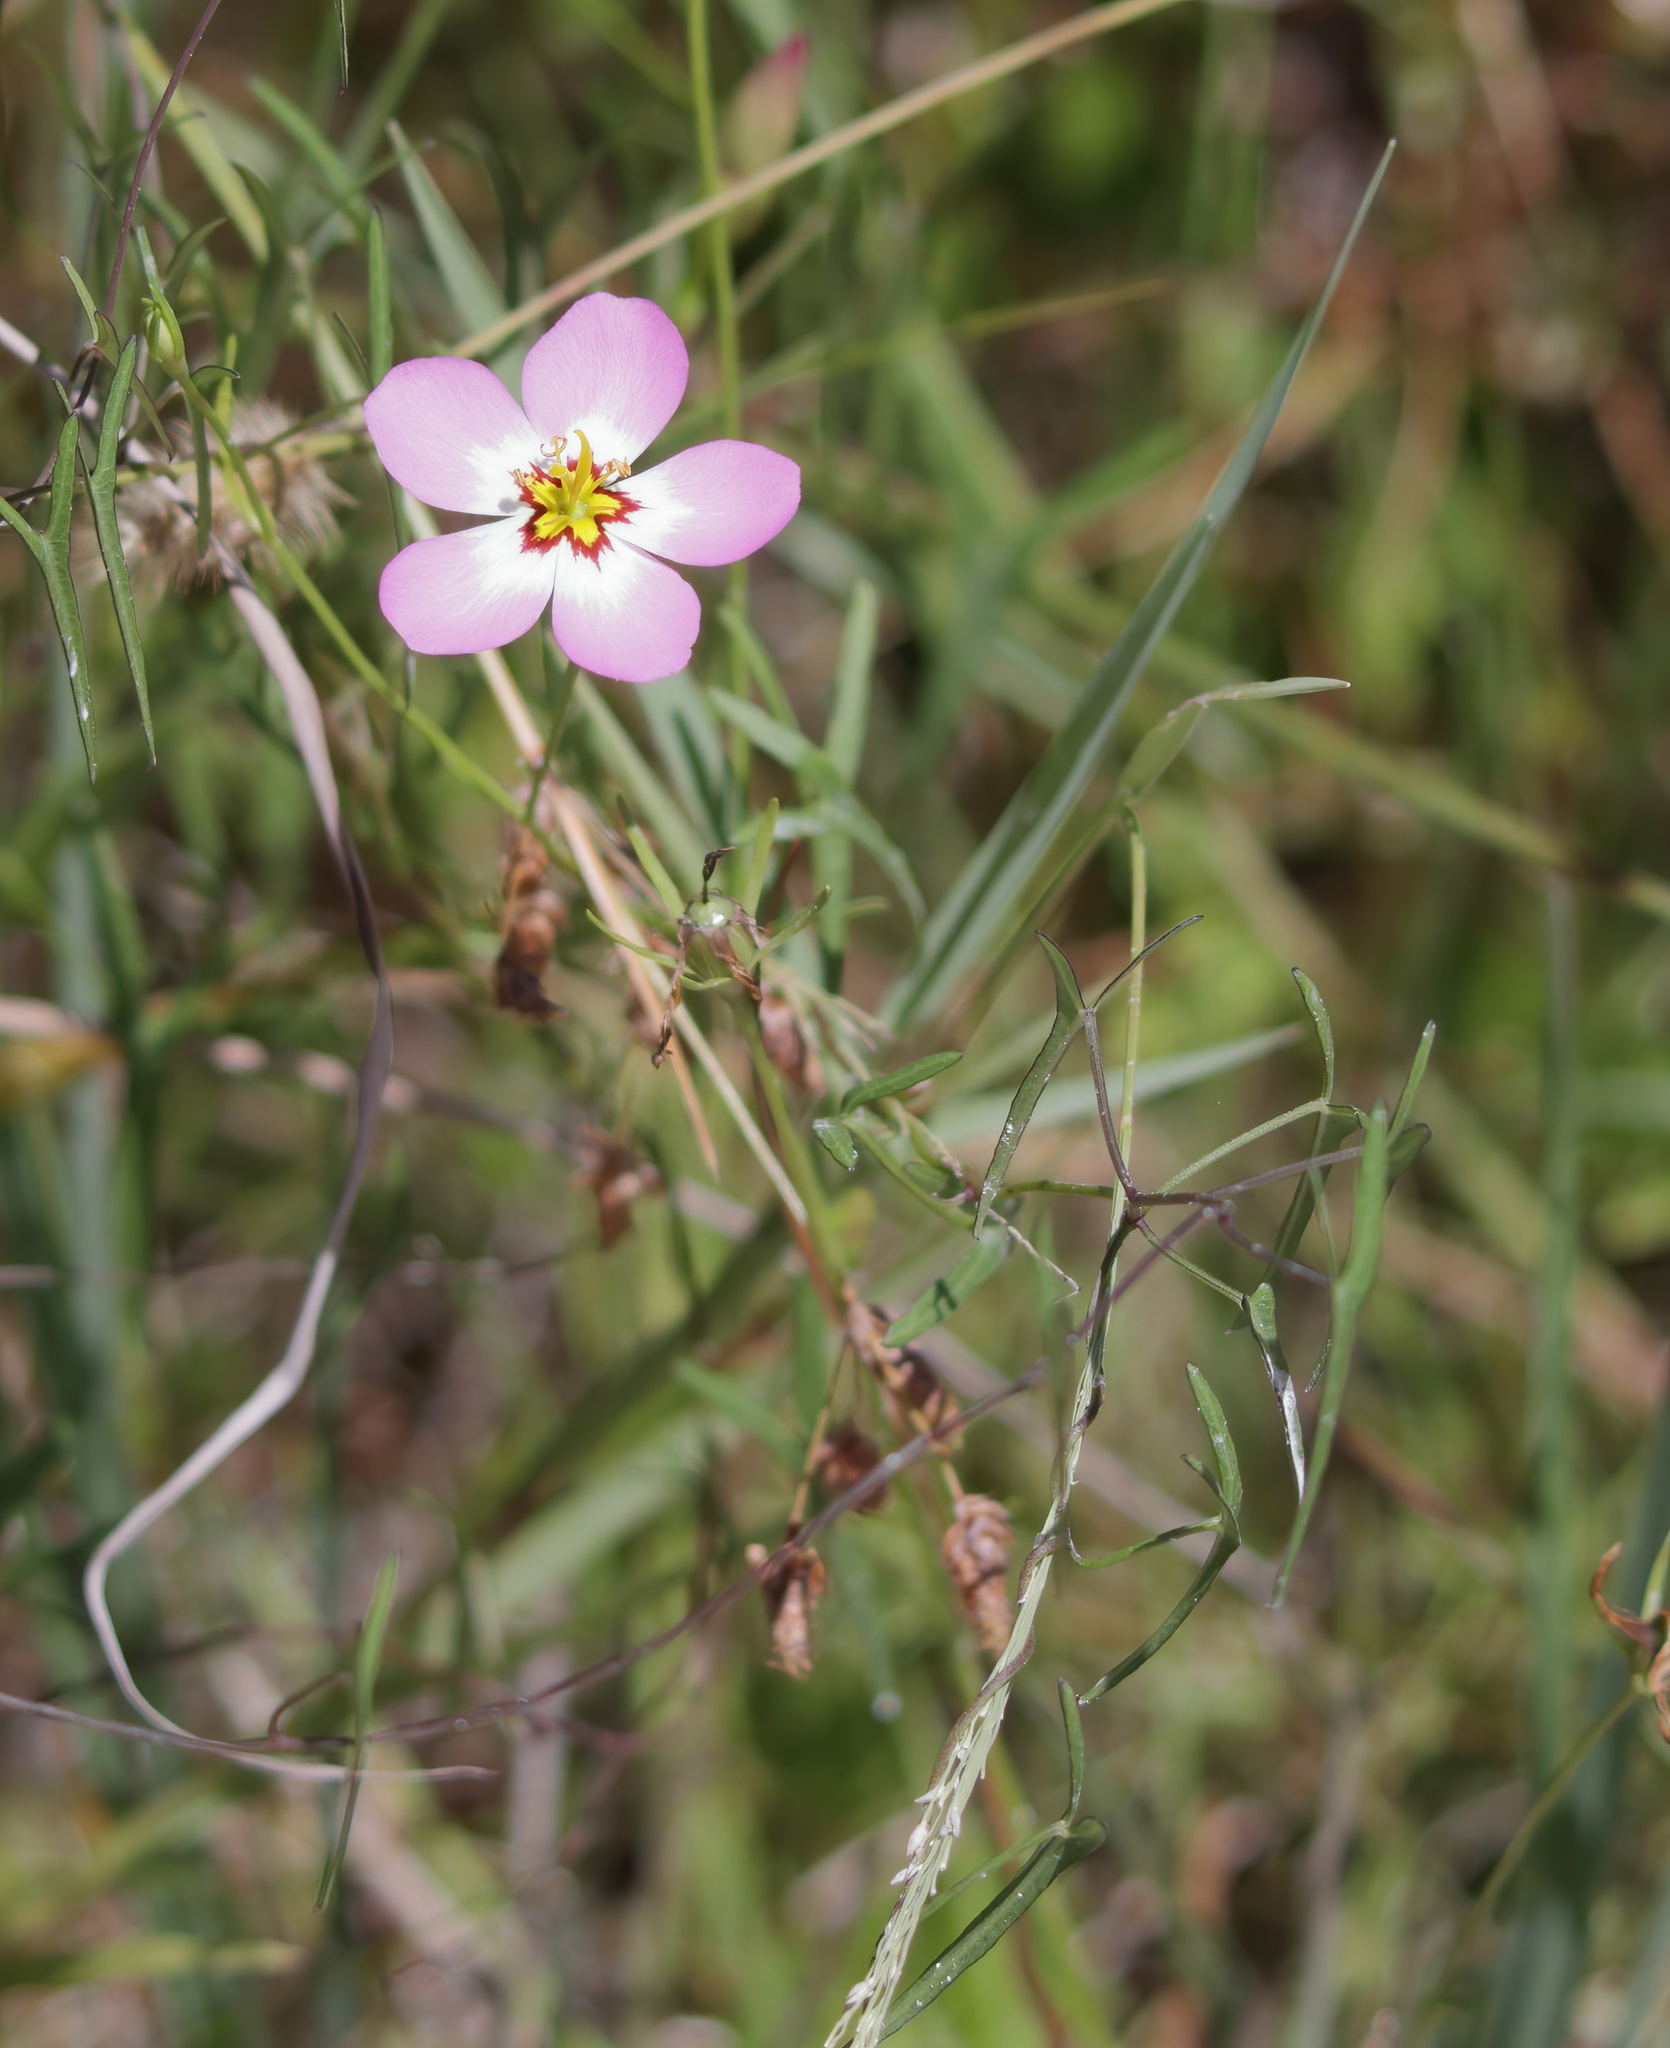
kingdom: Plantae
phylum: Tracheophyta
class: Magnoliopsida
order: Gentianales
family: Gentianaceae
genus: Sabatia
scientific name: Sabatia stellaris
